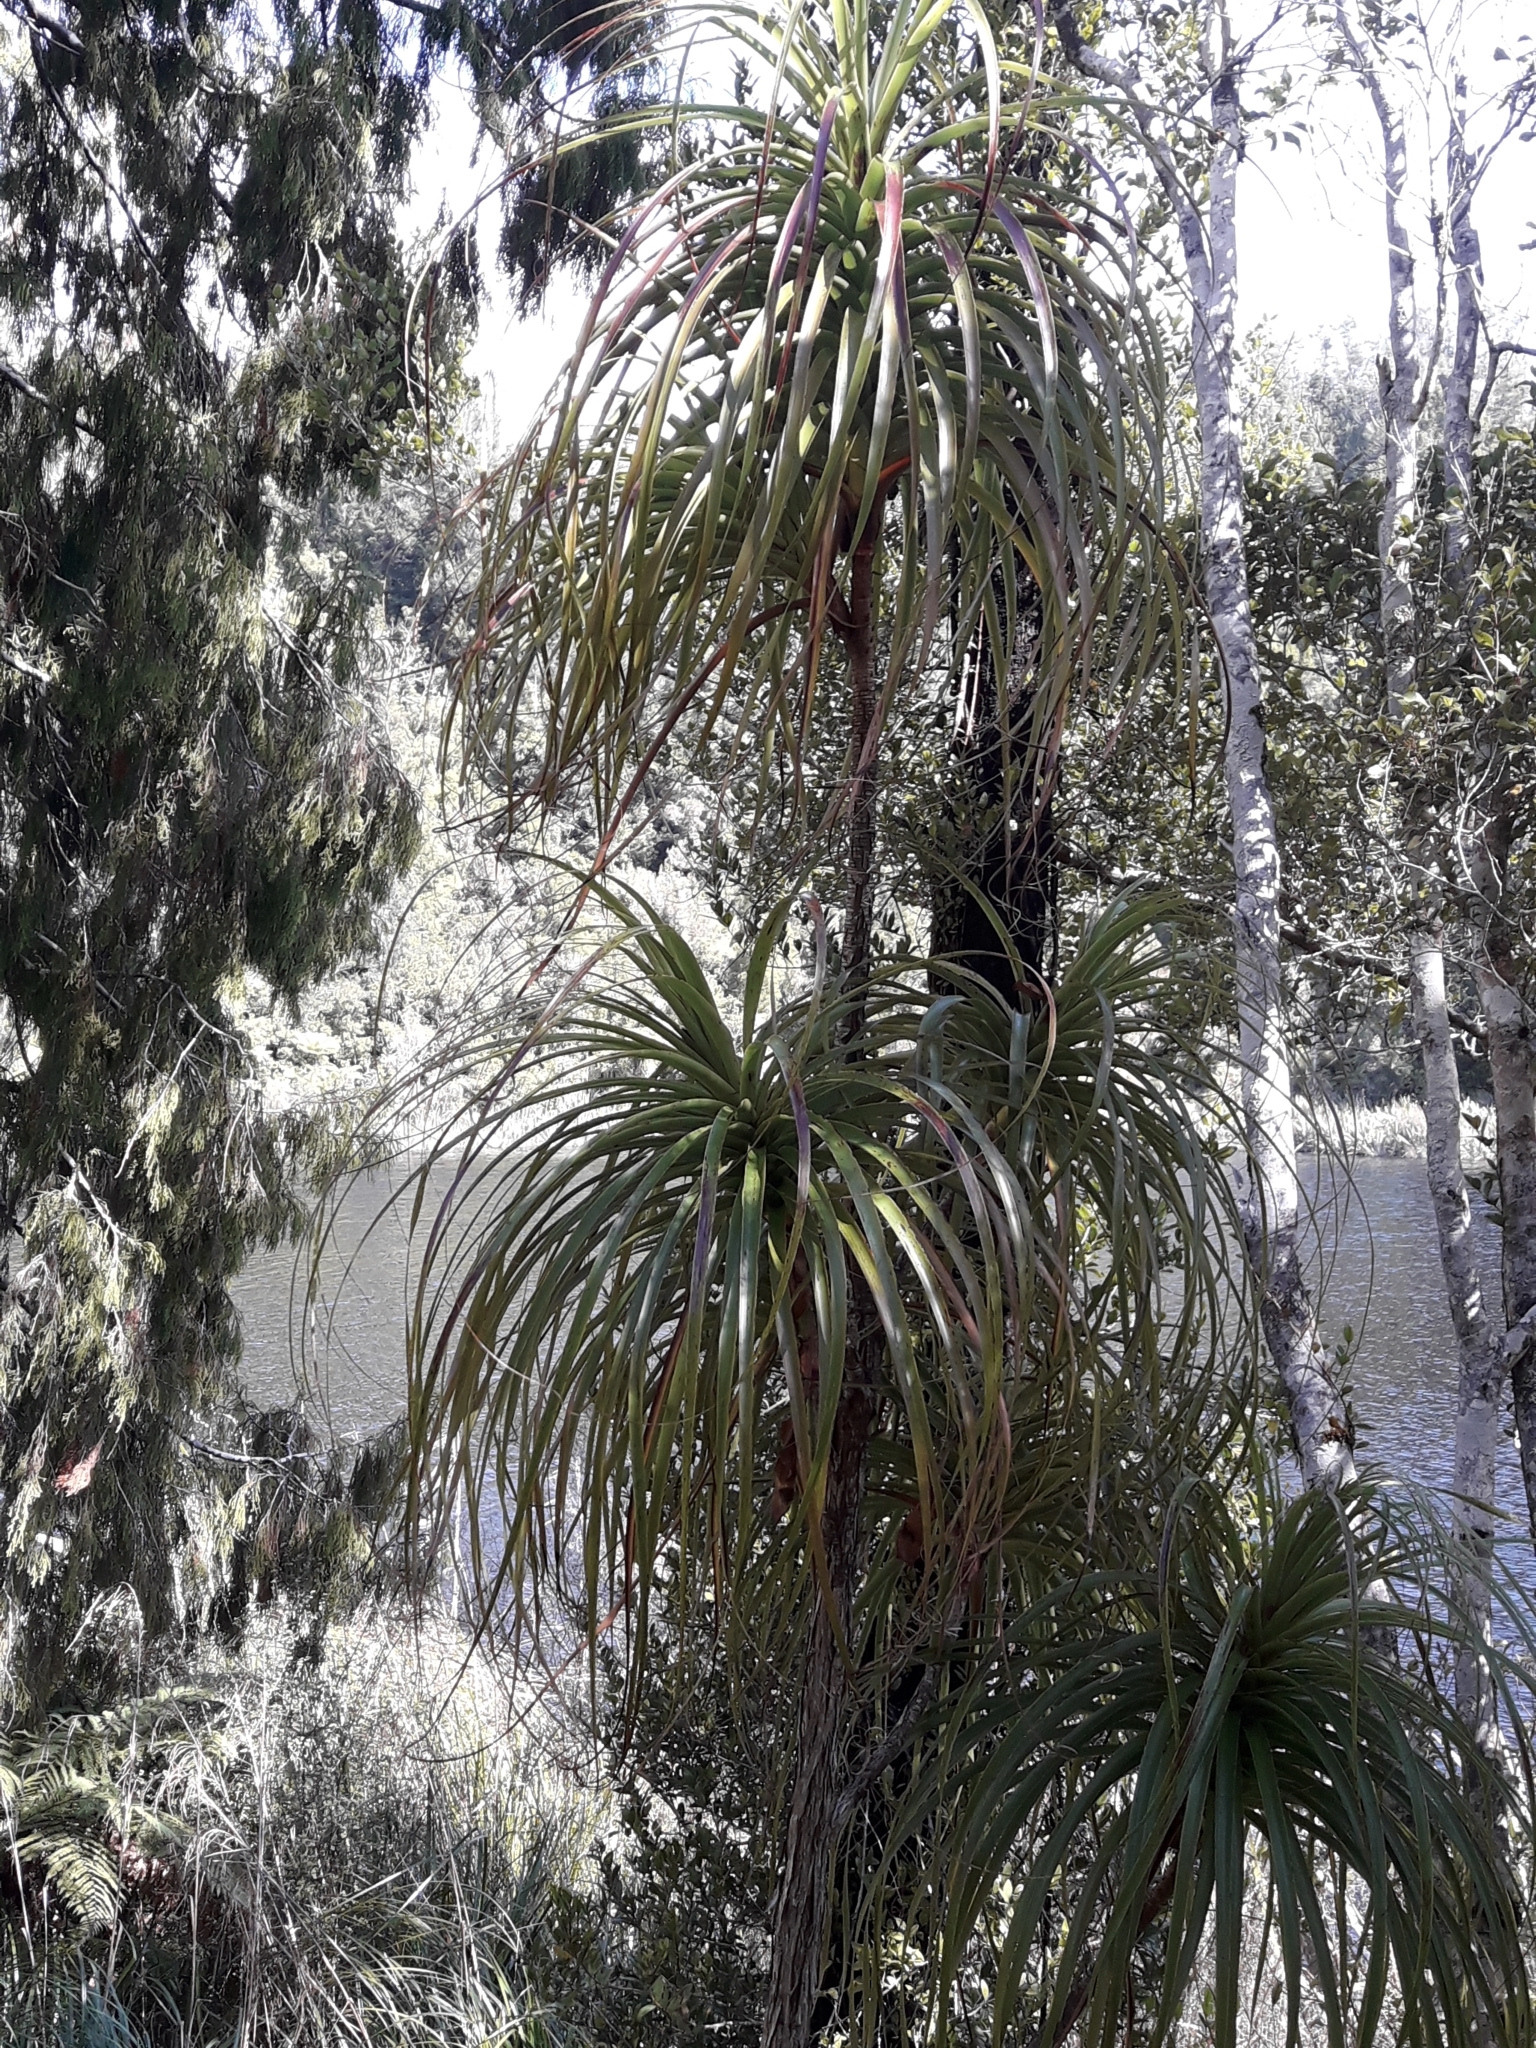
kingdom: Plantae
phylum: Tracheophyta
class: Magnoliopsida
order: Ericales
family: Ericaceae
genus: Dracophyllum
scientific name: Dracophyllum elegantissimum
